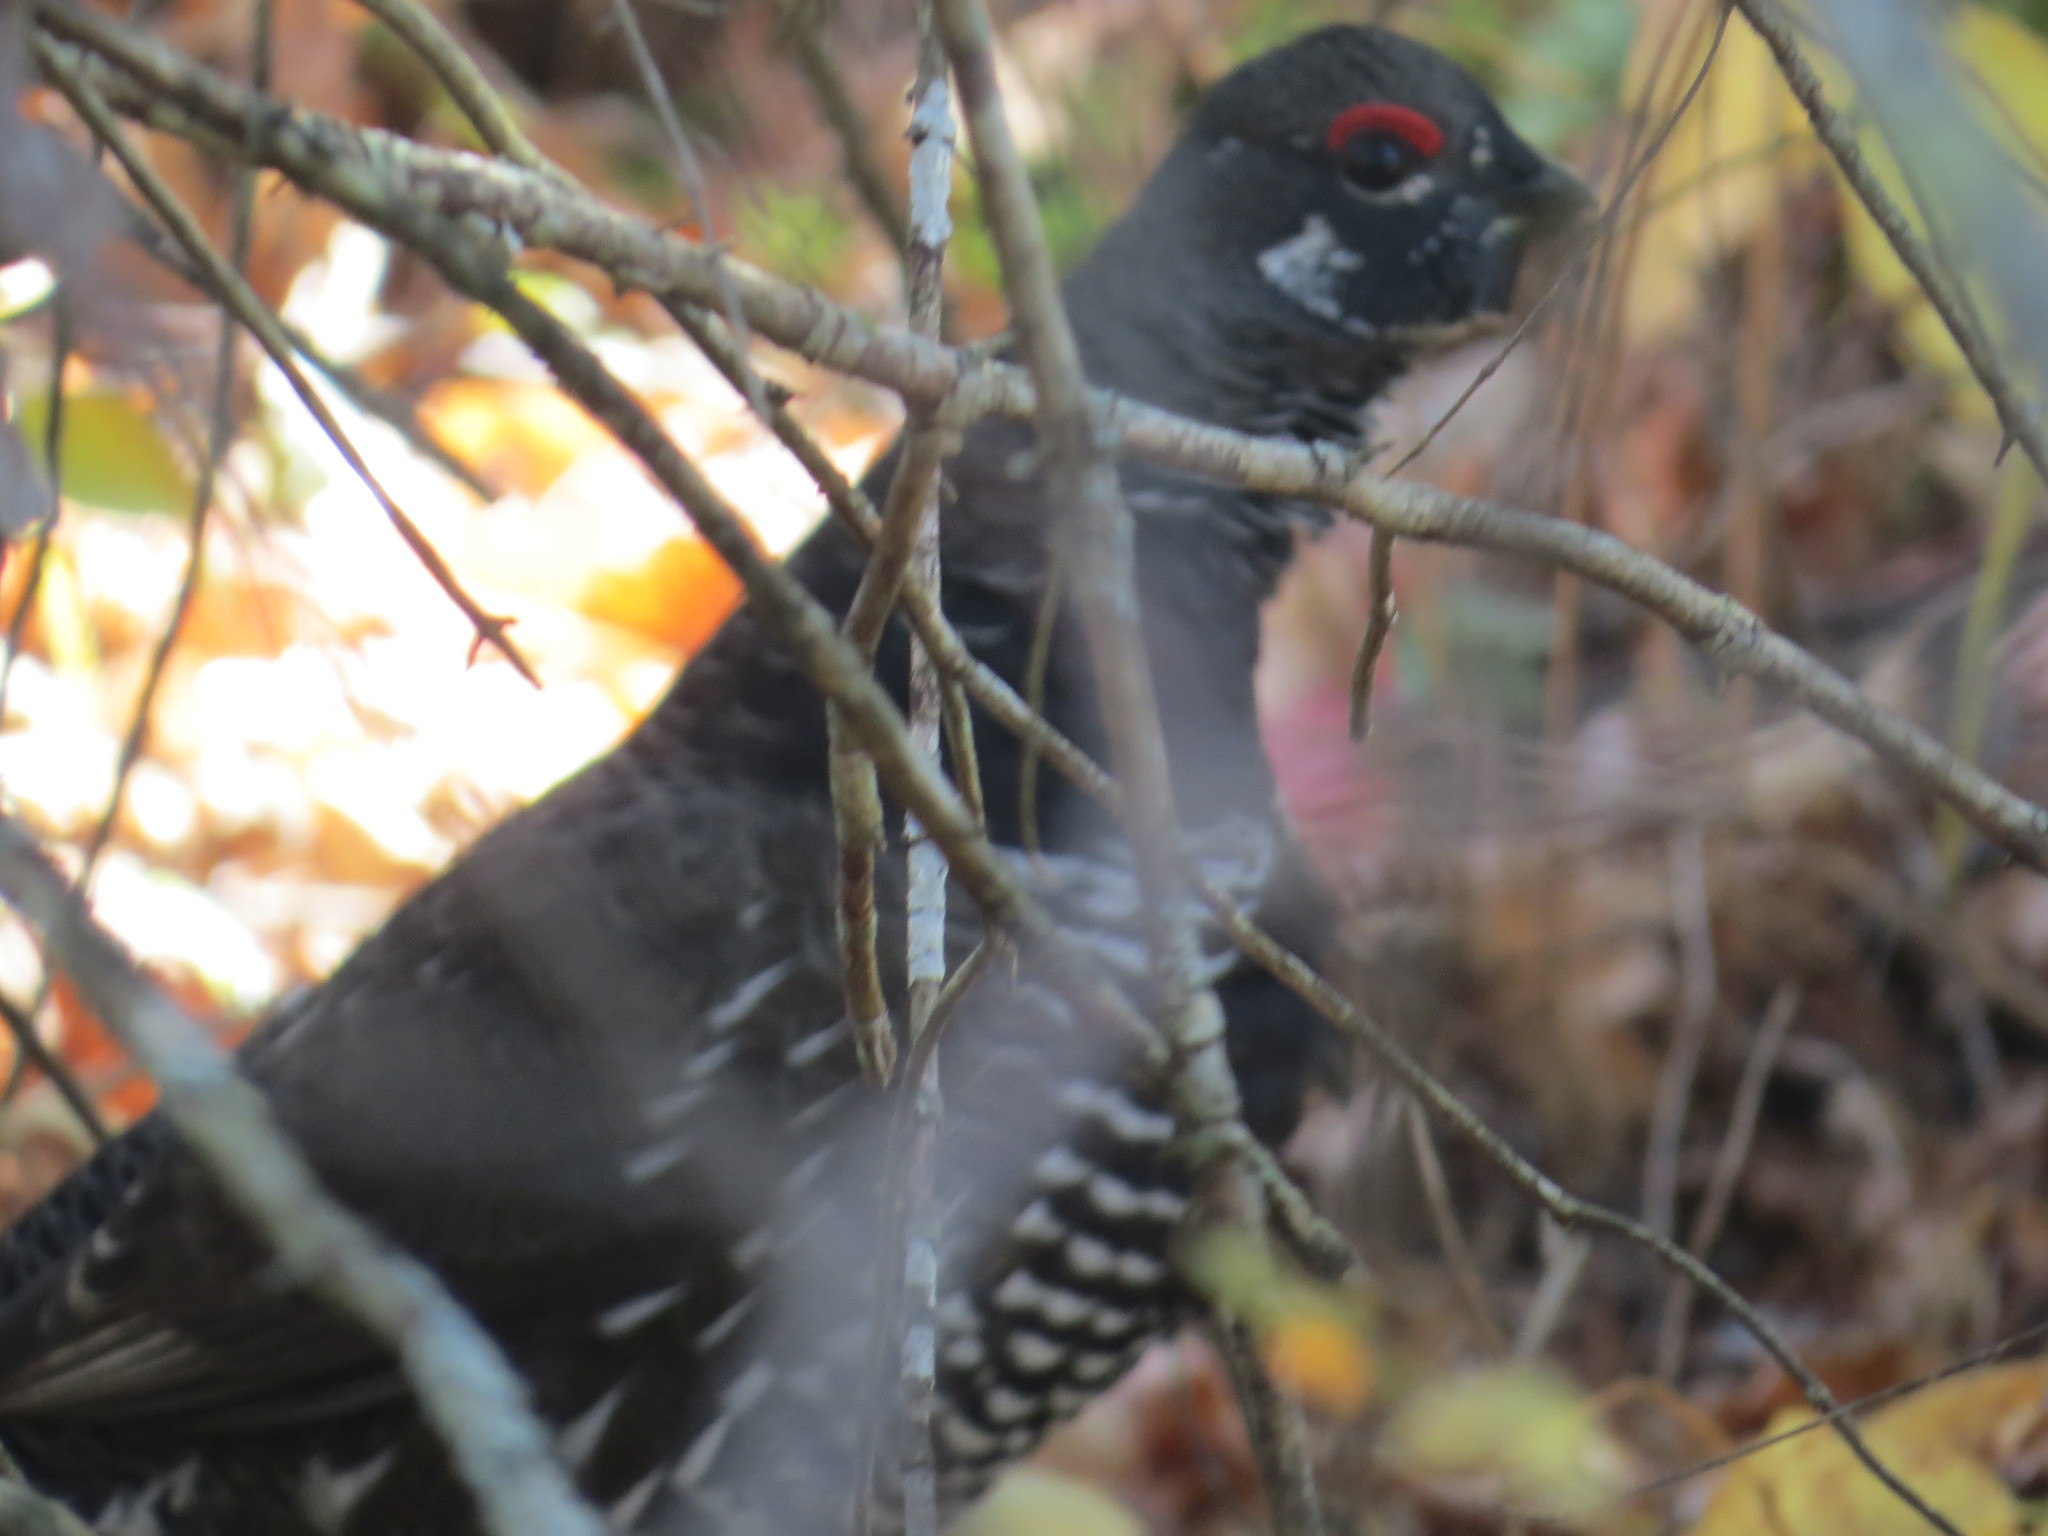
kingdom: Animalia
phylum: Chordata
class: Aves
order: Galliformes
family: Phasianidae
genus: Canachites
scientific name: Canachites canadensis
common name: Spruce grouse
